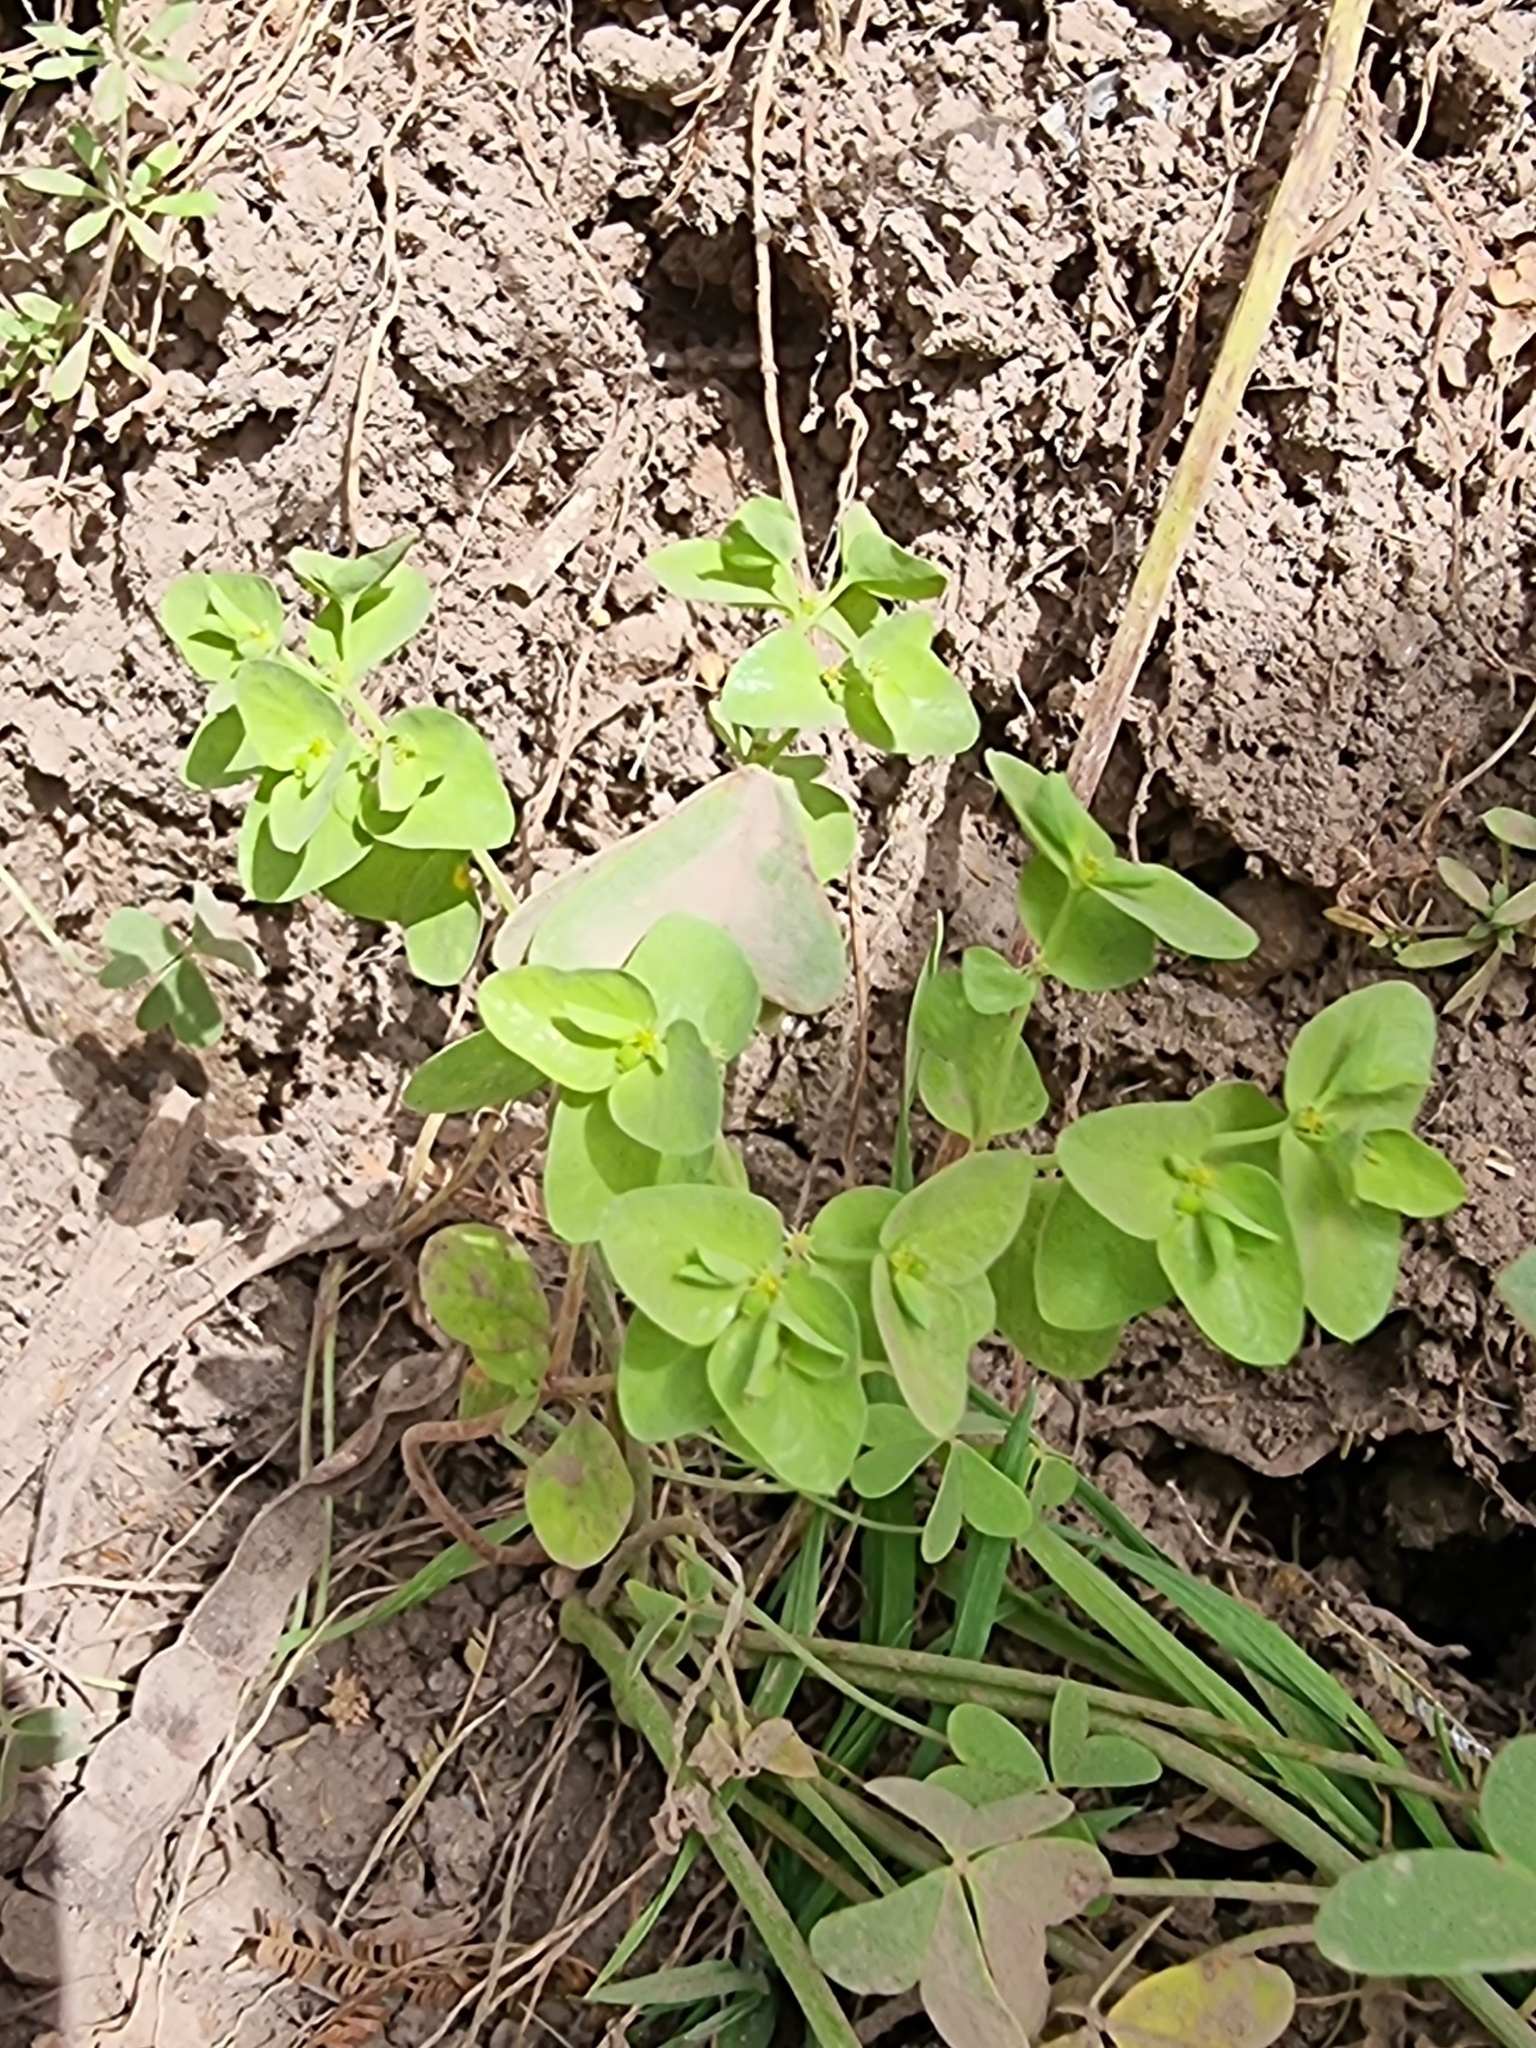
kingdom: Plantae
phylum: Tracheophyta
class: Magnoliopsida
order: Malpighiales
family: Euphorbiaceae
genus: Euphorbia
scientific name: Euphorbia peplus
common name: Petty spurge
